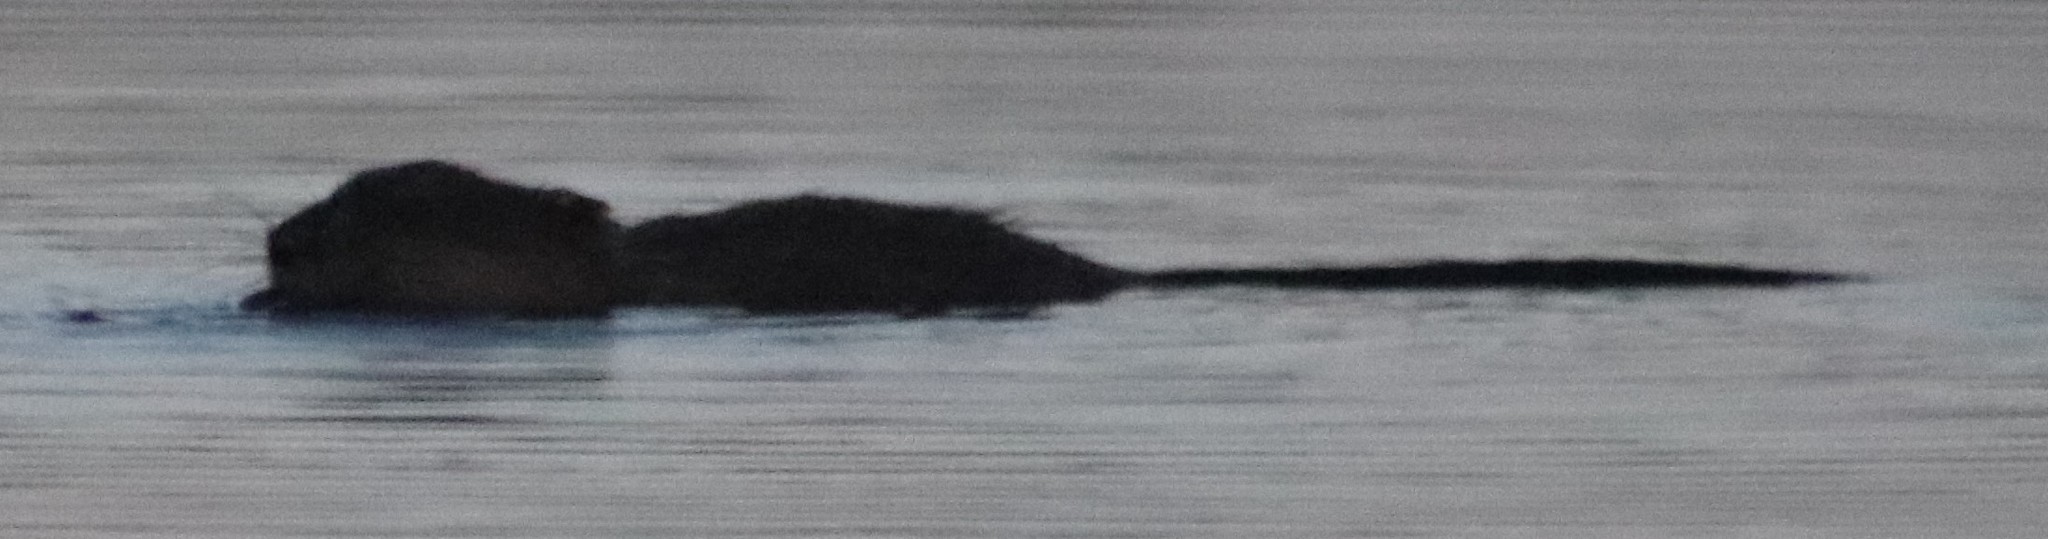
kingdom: Animalia
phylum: Chordata
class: Mammalia
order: Rodentia
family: Cricetidae
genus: Ondatra
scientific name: Ondatra zibethicus
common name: Muskrat
